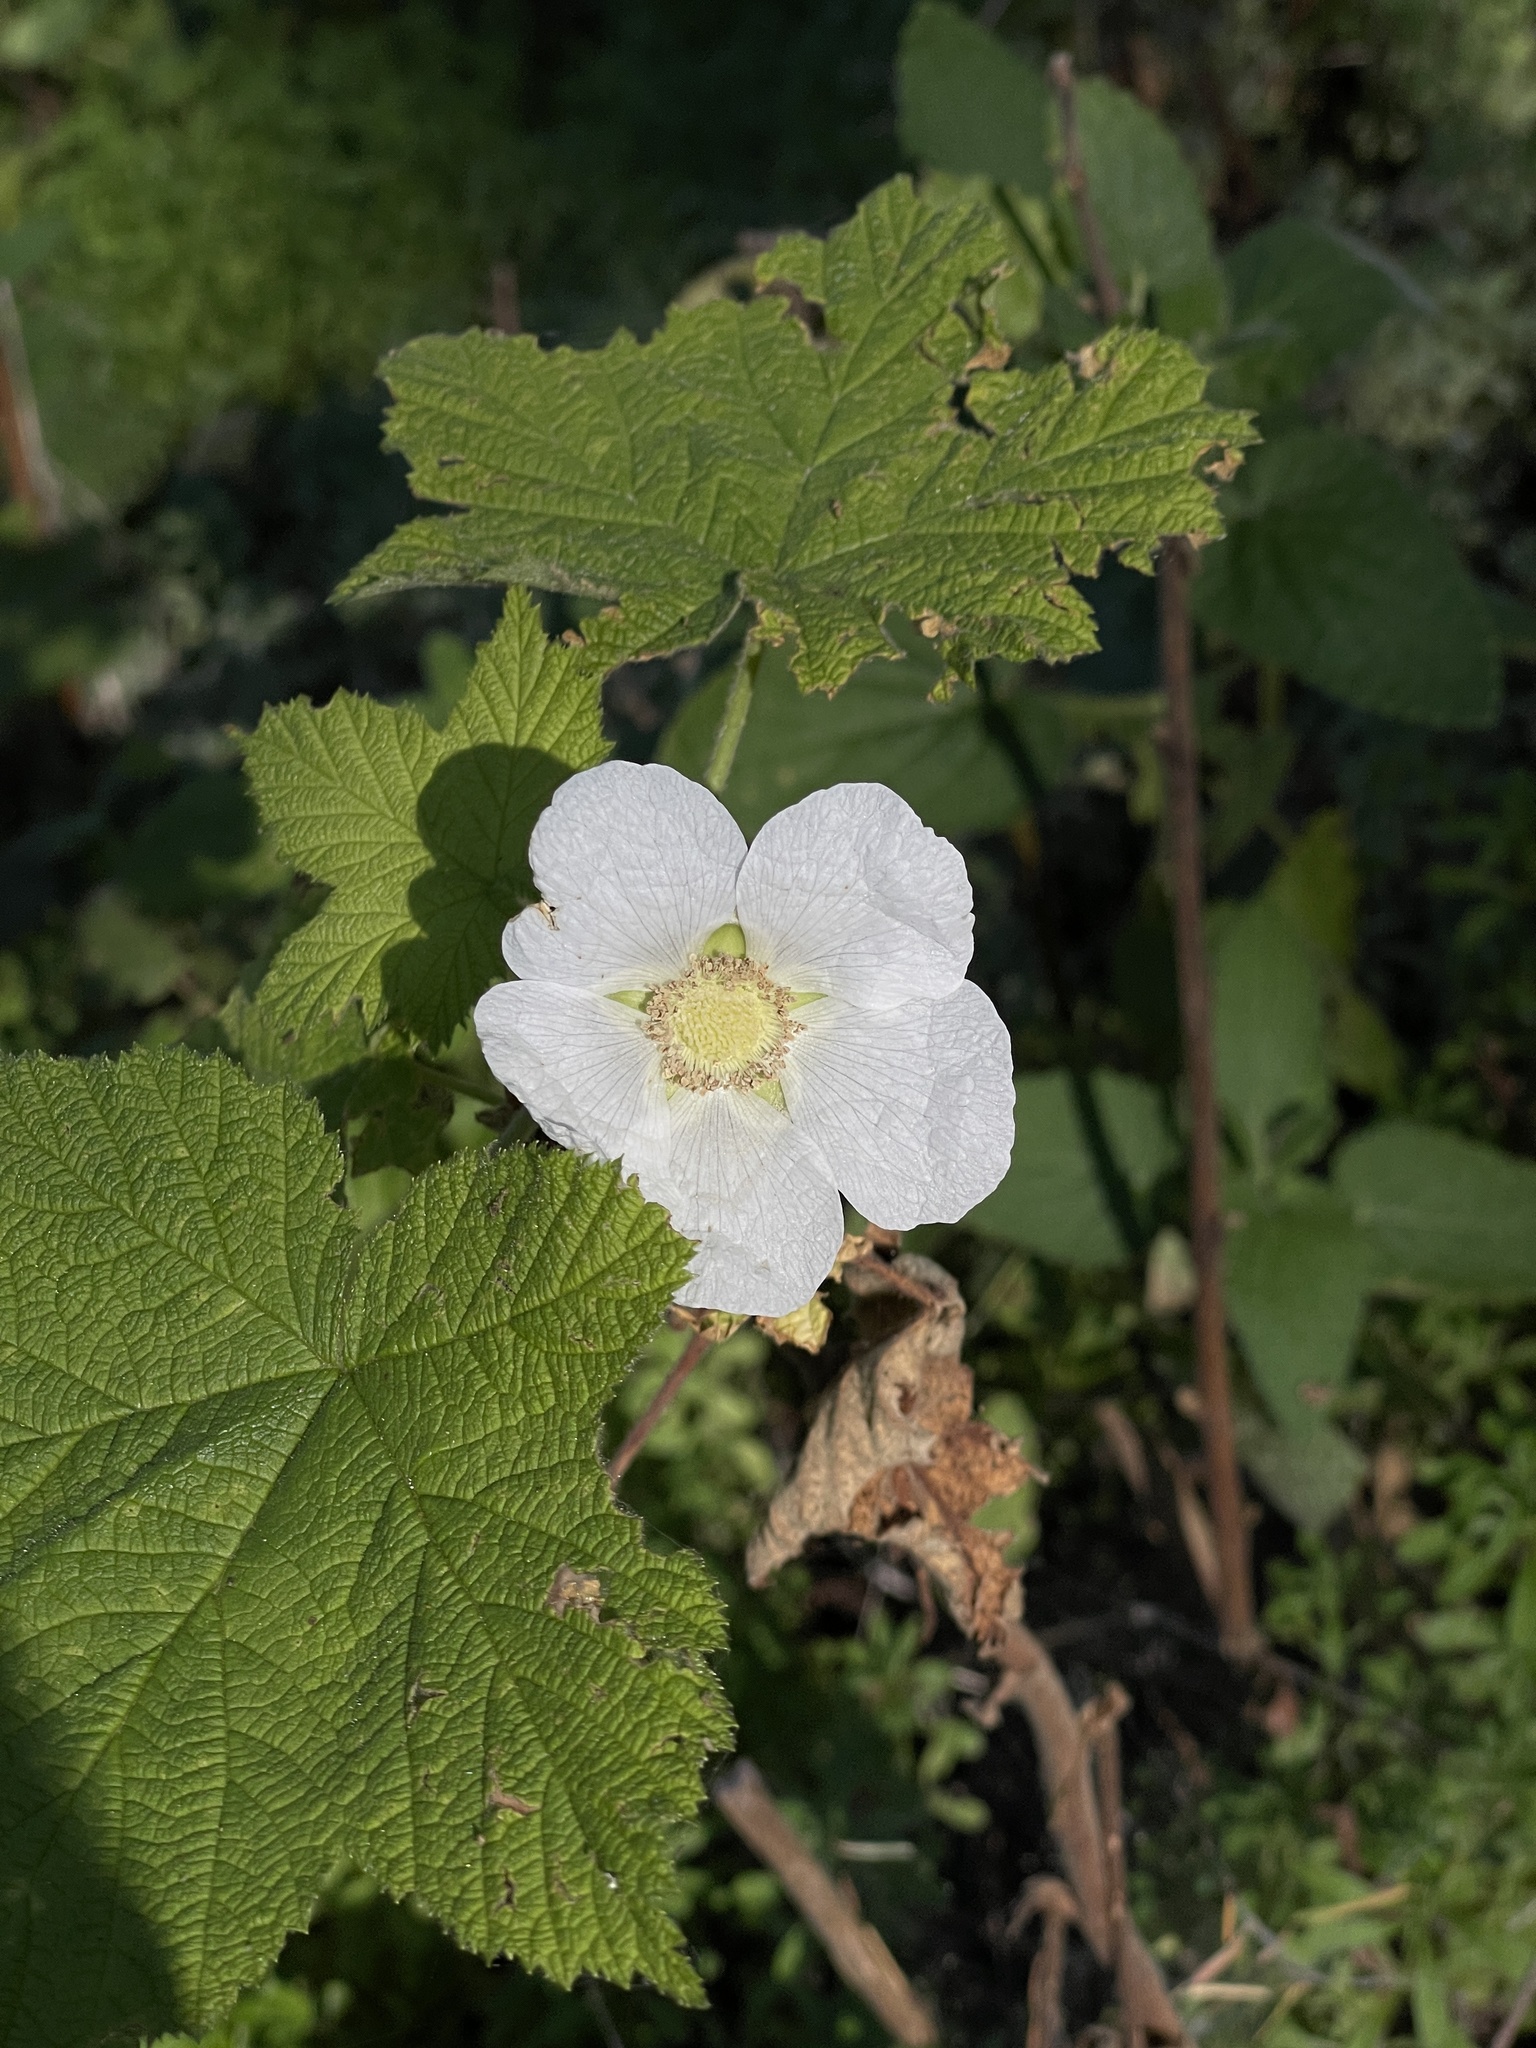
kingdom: Plantae
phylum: Tracheophyta
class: Magnoliopsida
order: Rosales
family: Rosaceae
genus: Rubus
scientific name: Rubus parviflorus
